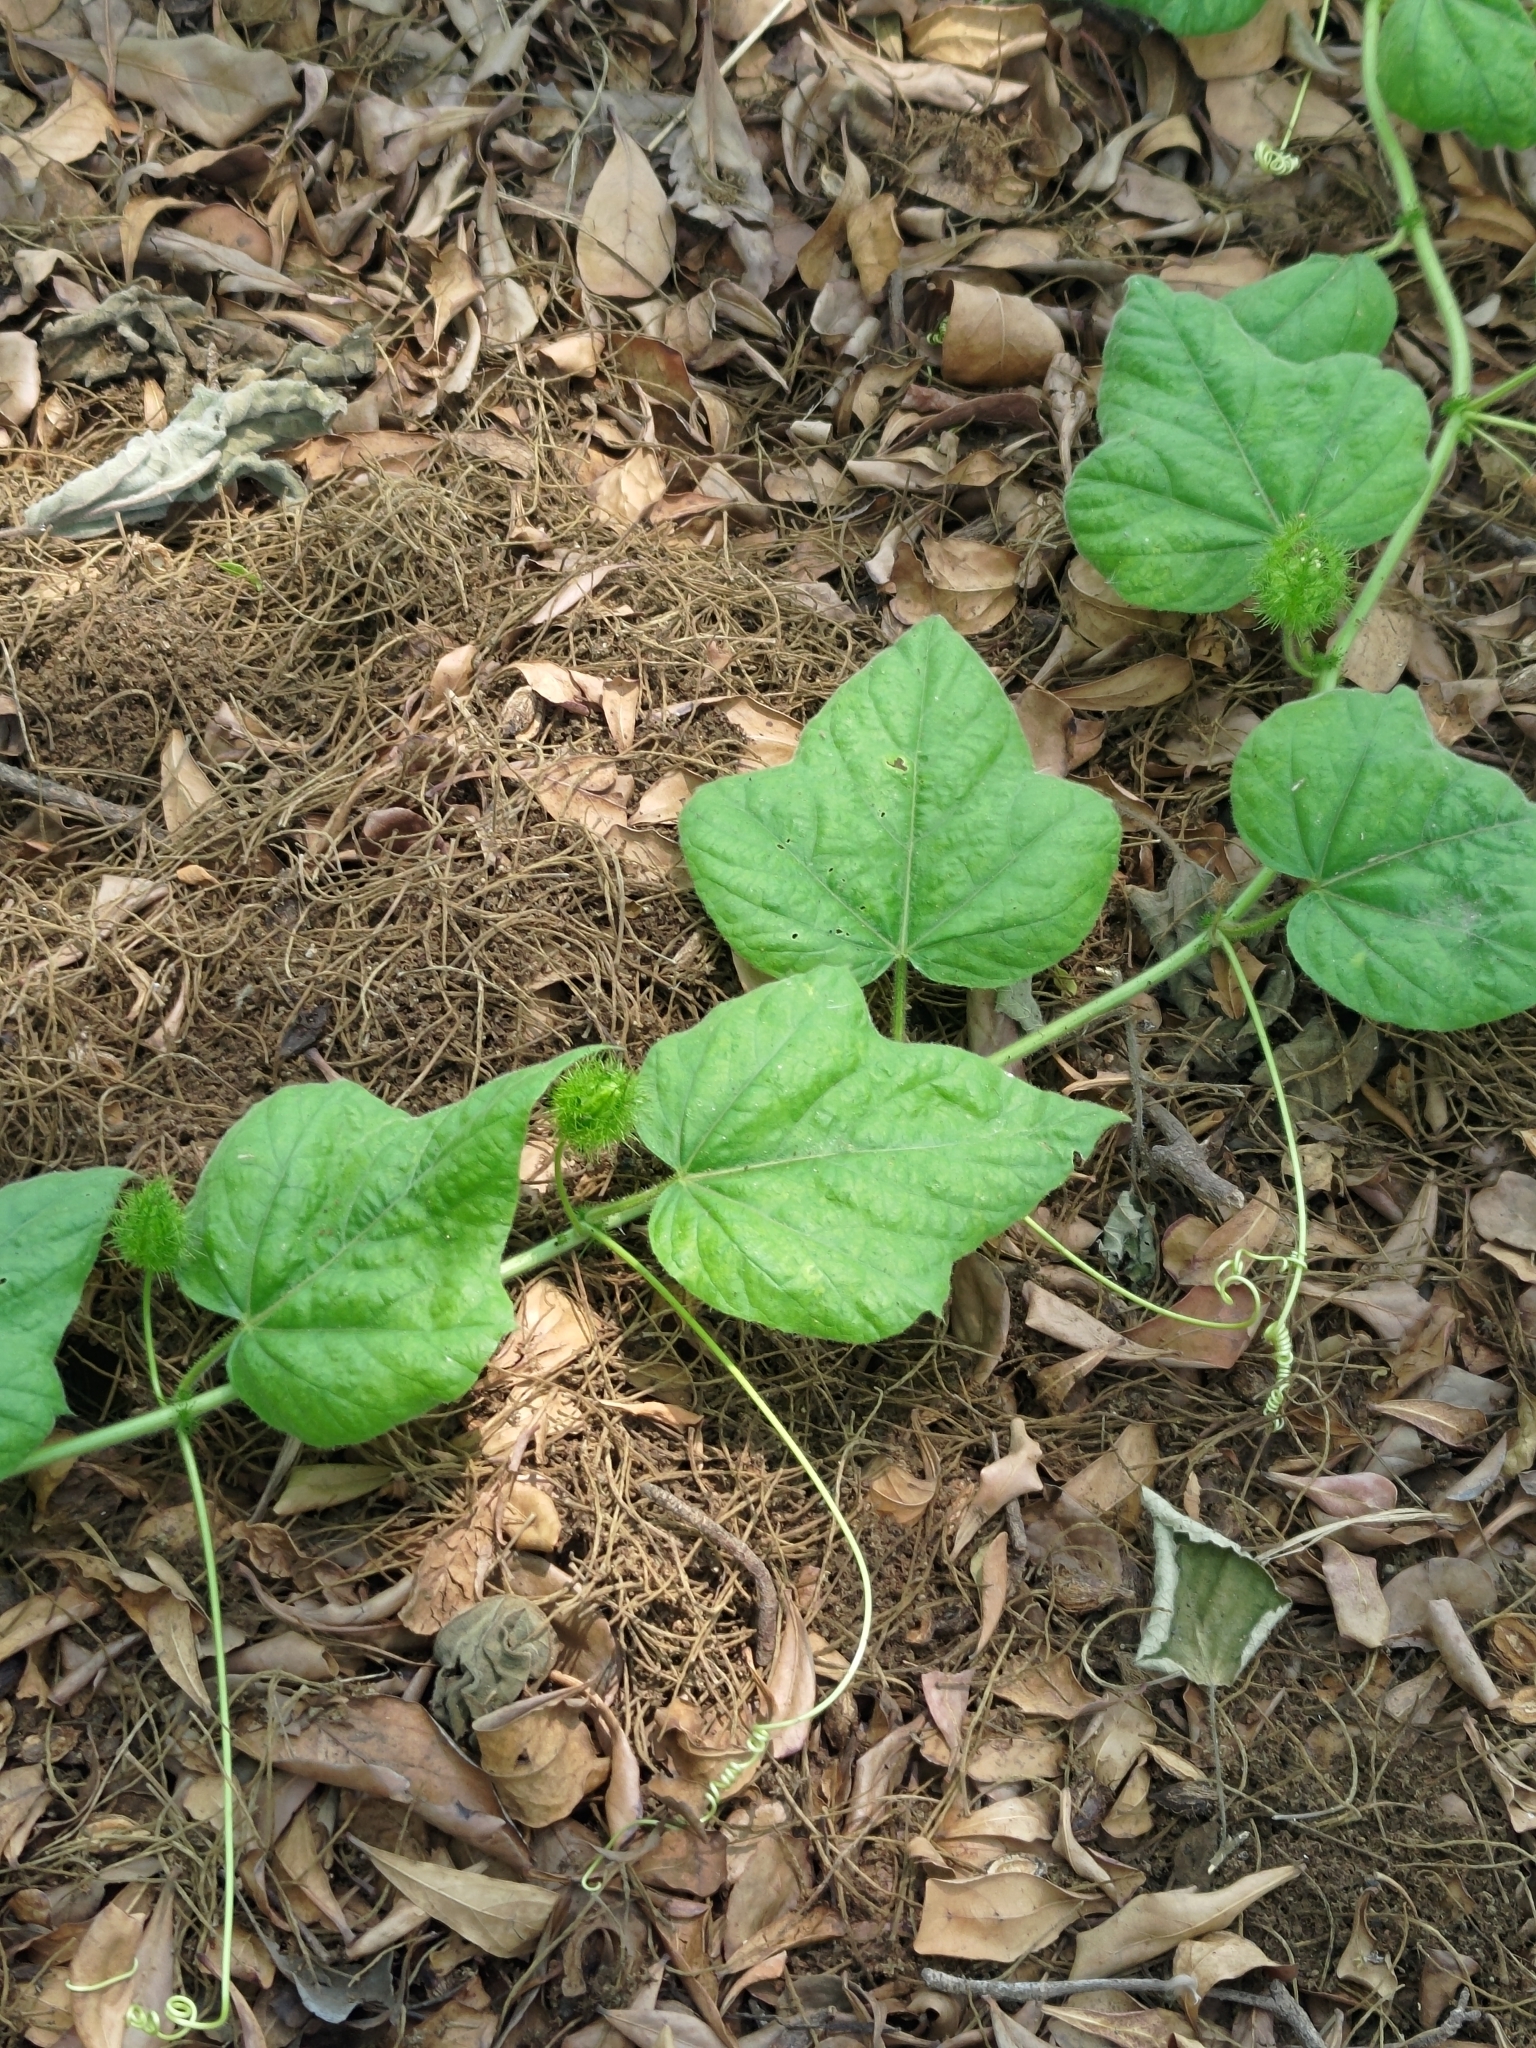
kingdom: Plantae
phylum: Tracheophyta
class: Magnoliopsida
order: Malpighiales
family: Passifloraceae
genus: Passiflora
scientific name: Passiflora vesicaria
